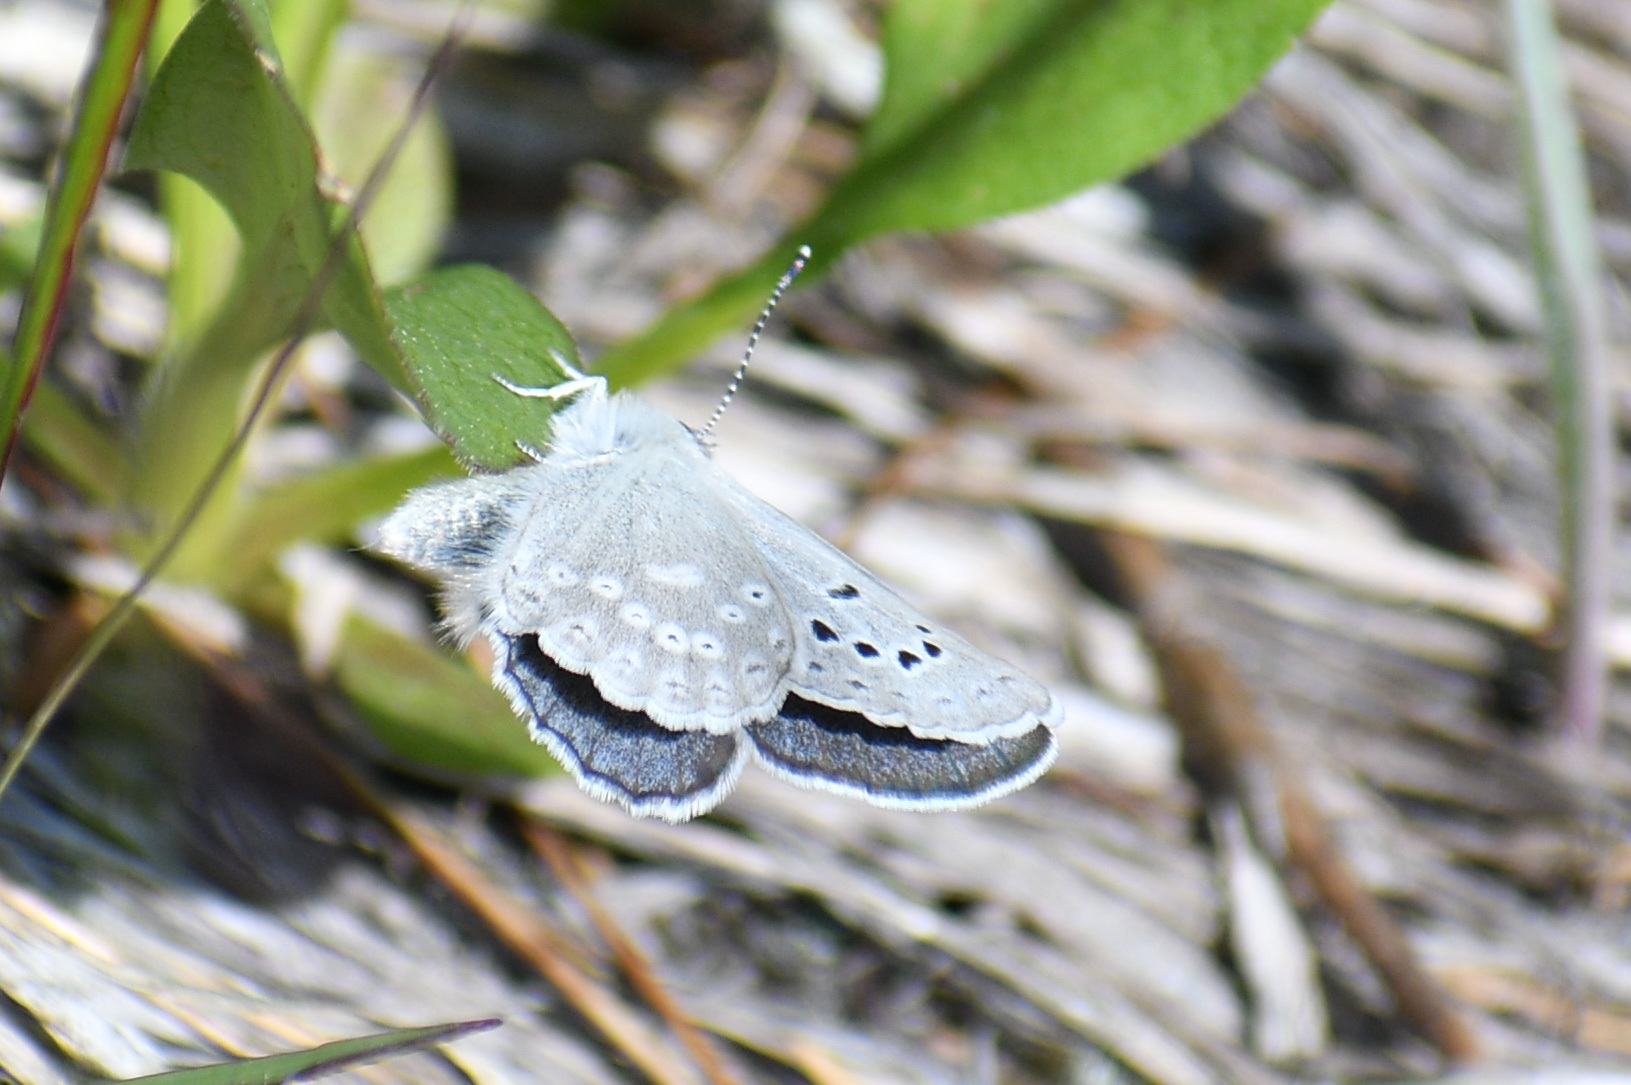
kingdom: Animalia
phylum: Arthropoda
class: Insecta
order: Lepidoptera
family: Lycaenidae
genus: Icaricia
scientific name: Icaricia icarioides
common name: Boisduval's blue
